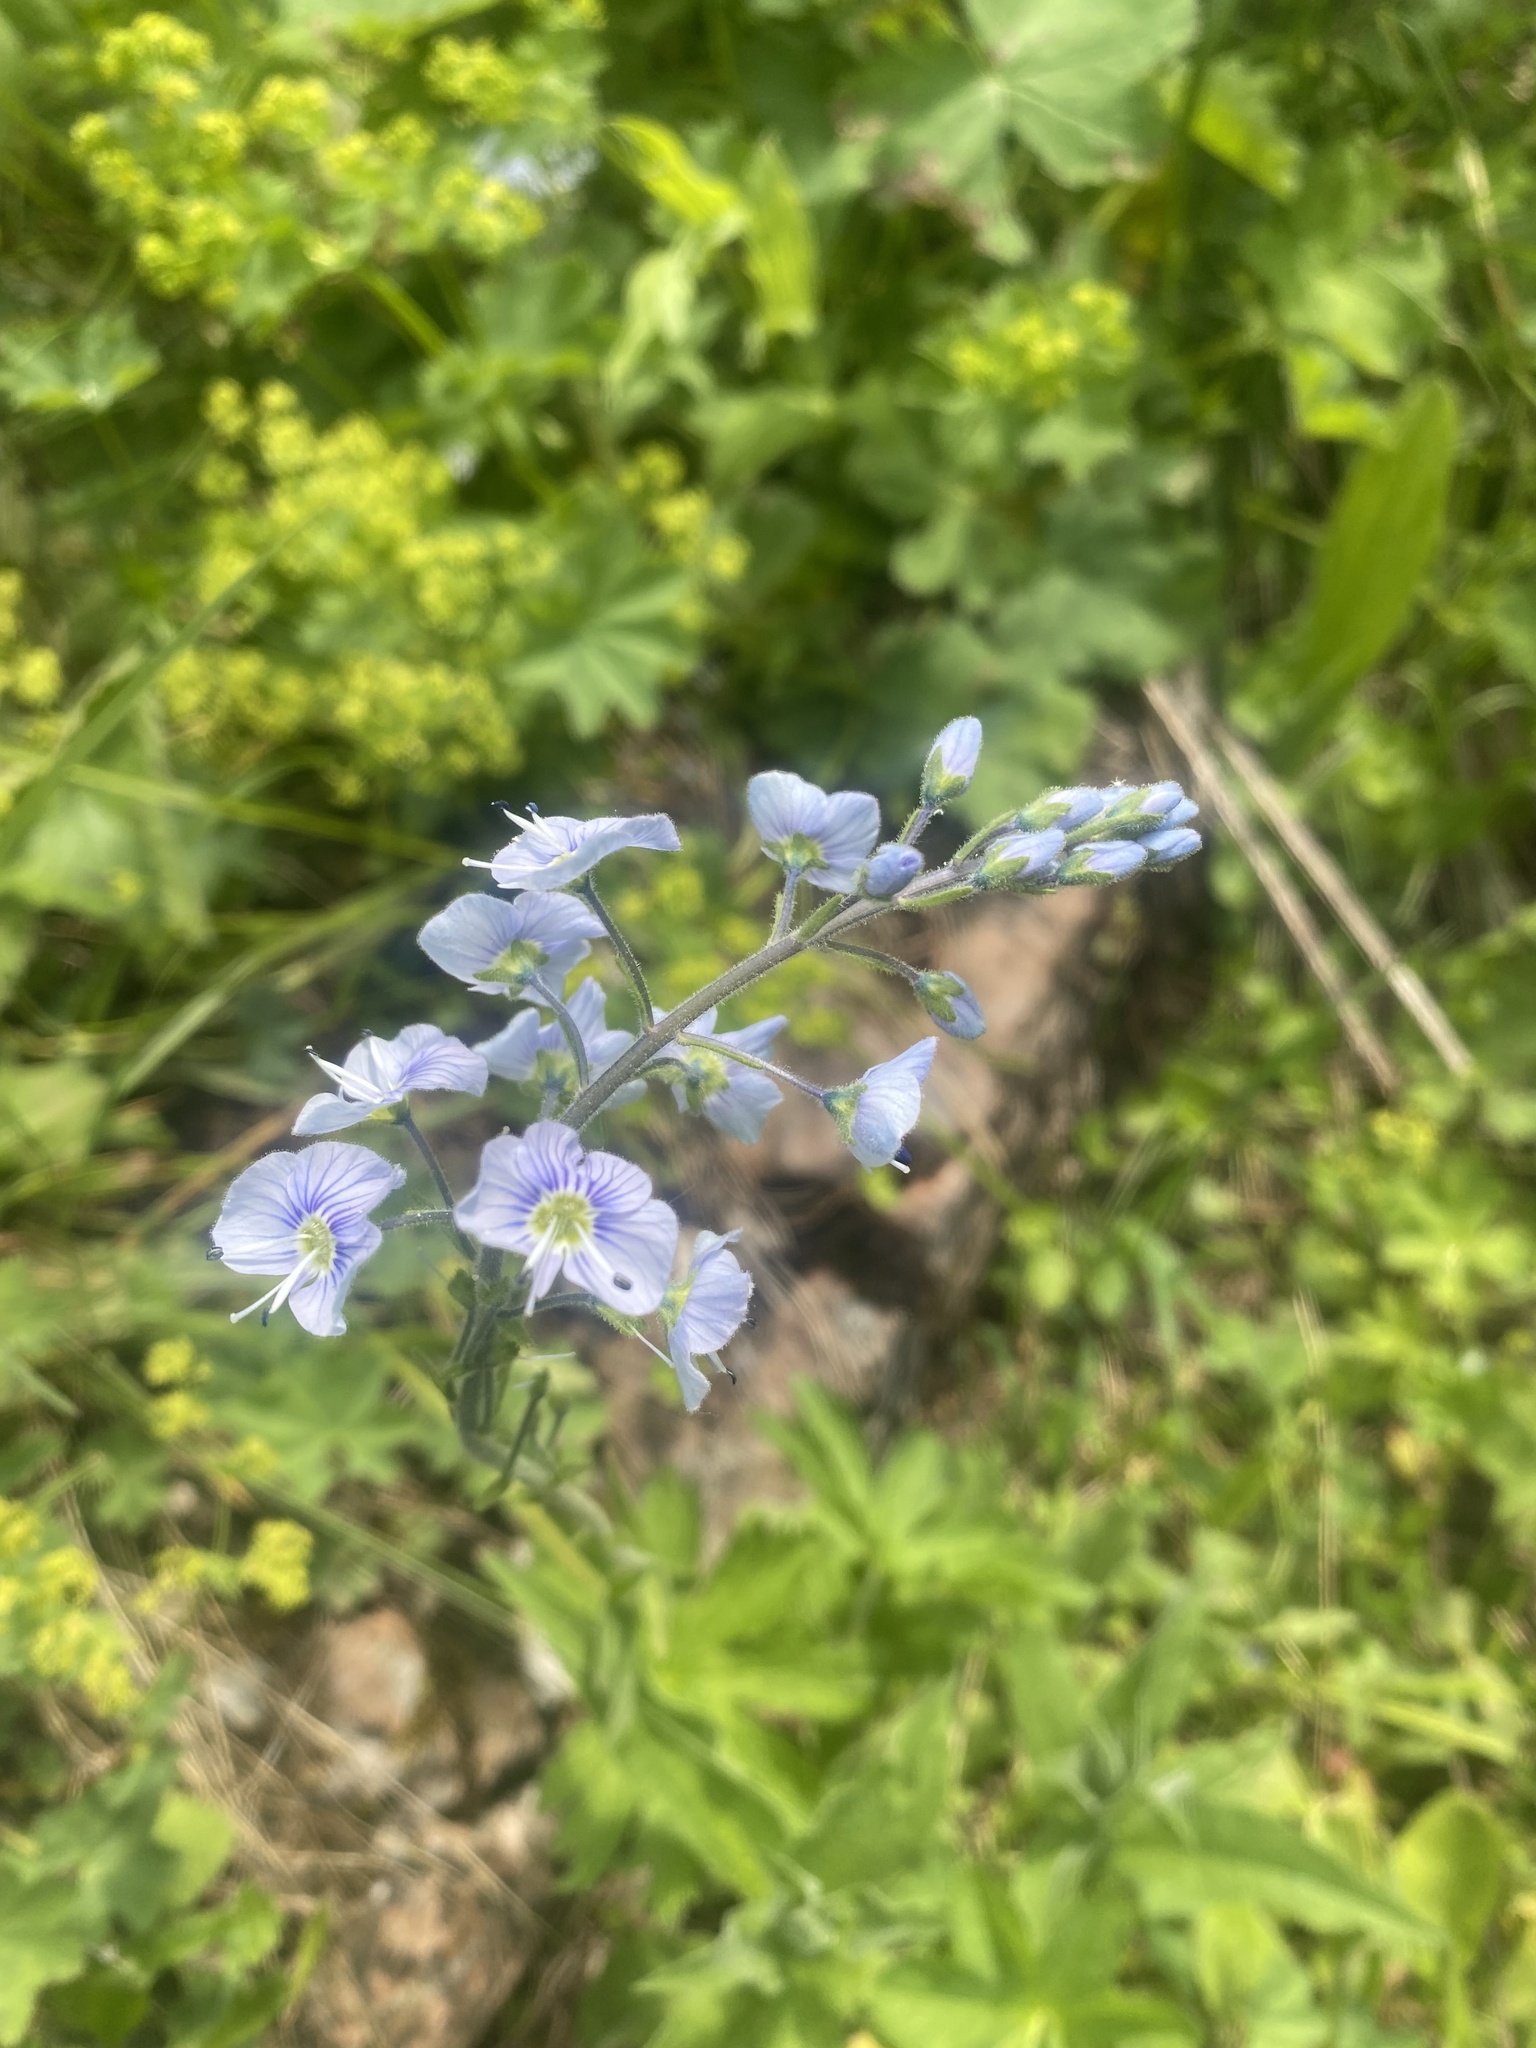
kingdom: Plantae
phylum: Tracheophyta
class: Magnoliopsida
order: Lamiales
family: Plantaginaceae
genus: Veronica
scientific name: Veronica gentianoides
